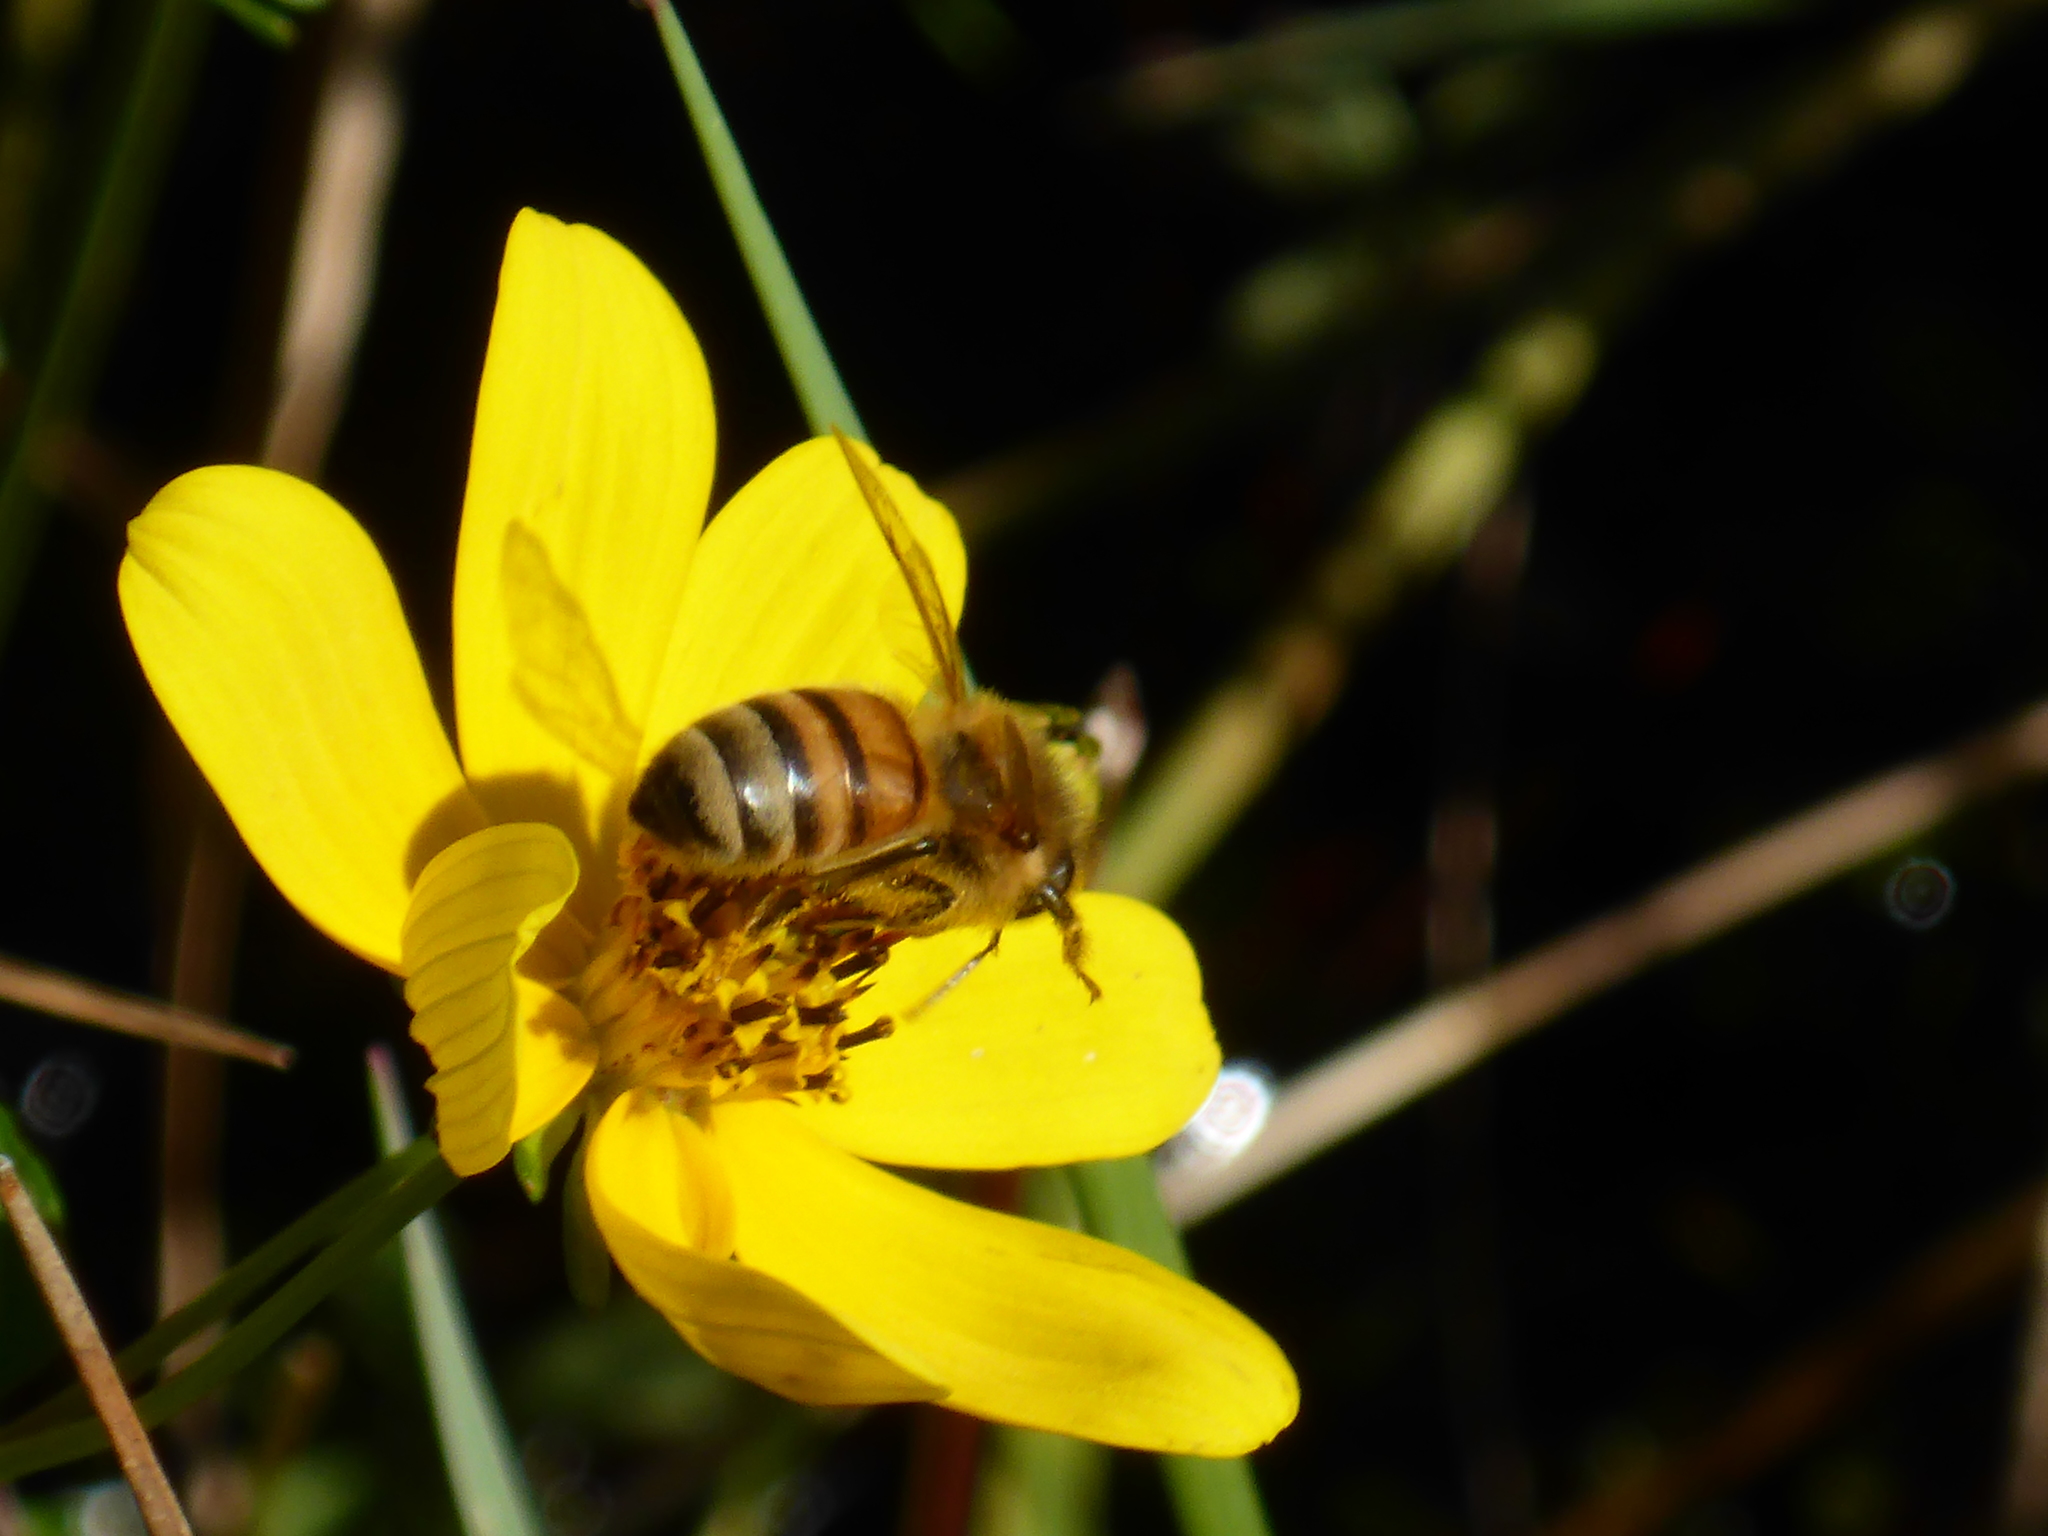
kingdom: Animalia
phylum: Arthropoda
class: Insecta
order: Hymenoptera
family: Apidae
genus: Apis
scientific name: Apis mellifera
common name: Honey bee
